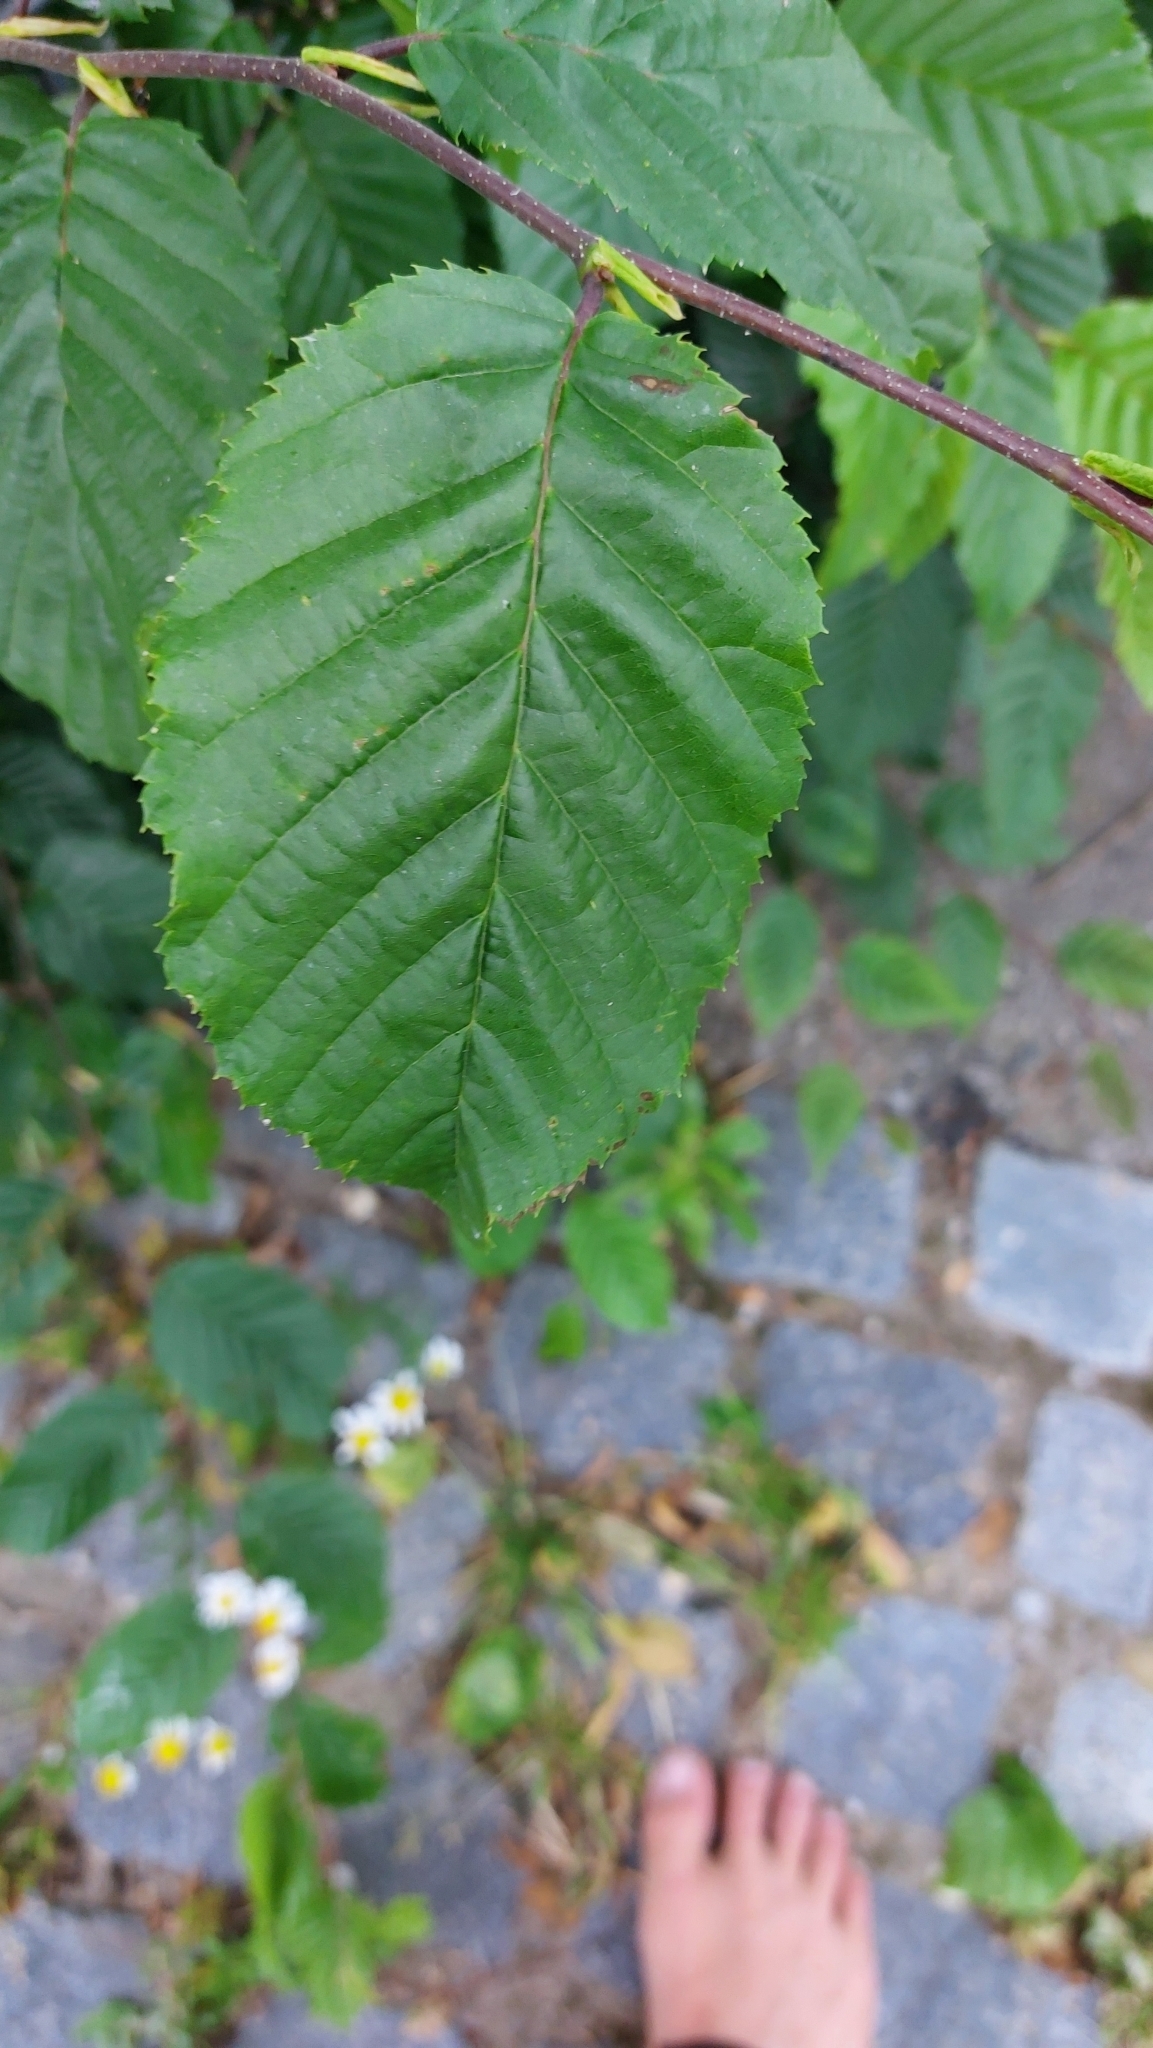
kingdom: Plantae
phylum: Tracheophyta
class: Magnoliopsida
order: Fagales
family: Betulaceae
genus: Carpinus
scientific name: Carpinus betulus
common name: Hornbeam
